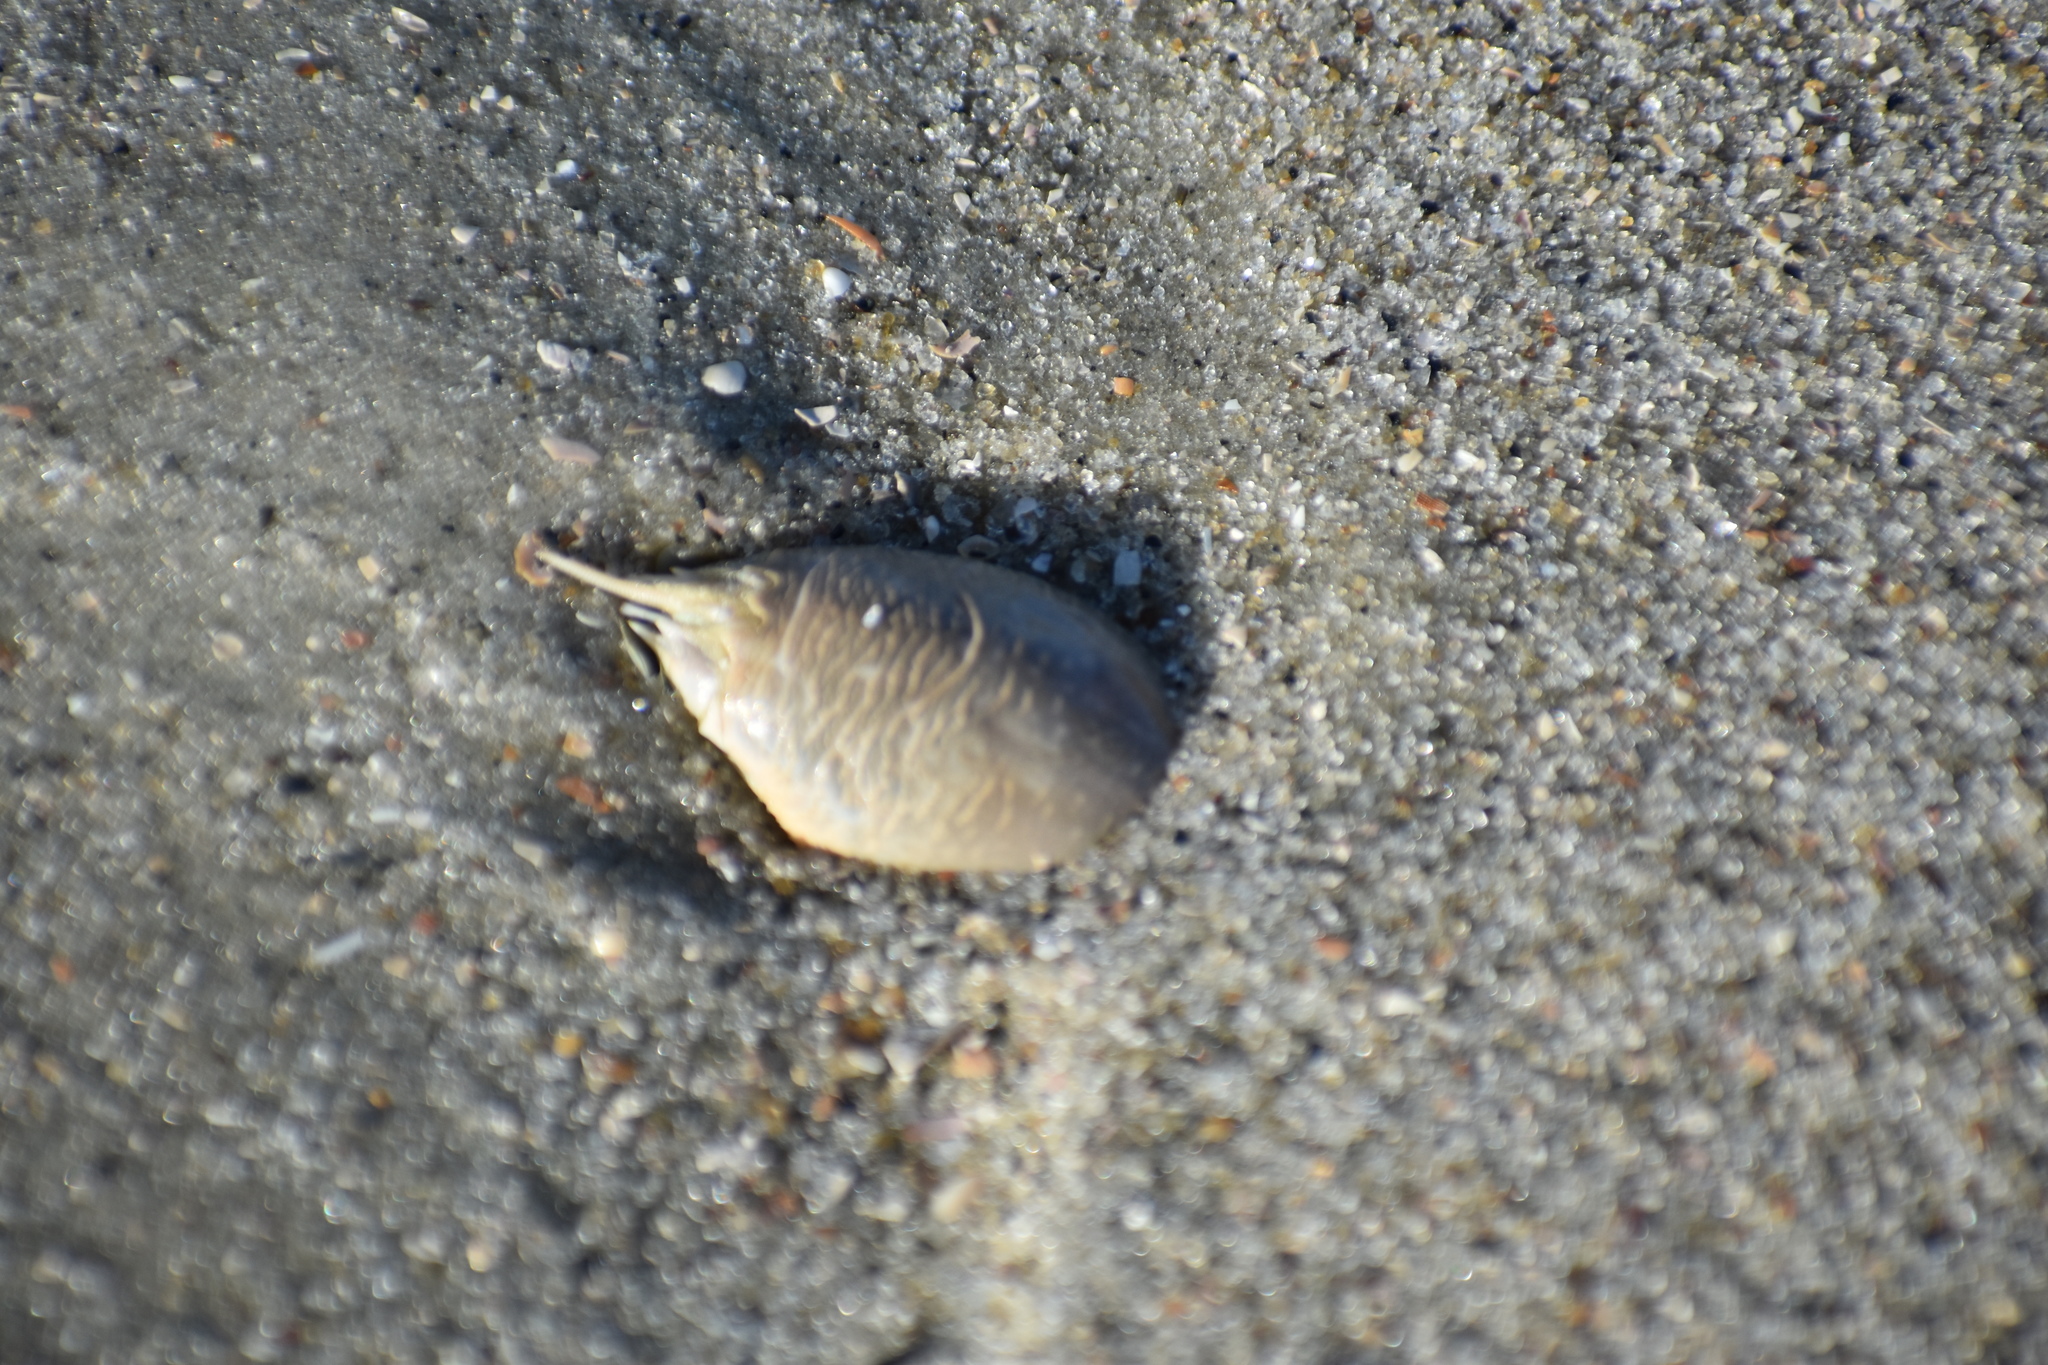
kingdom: Animalia
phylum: Arthropoda
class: Malacostraca
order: Decapoda
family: Hippidae
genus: Emerita
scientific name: Emerita talpoida
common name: Atlantic sand crab
